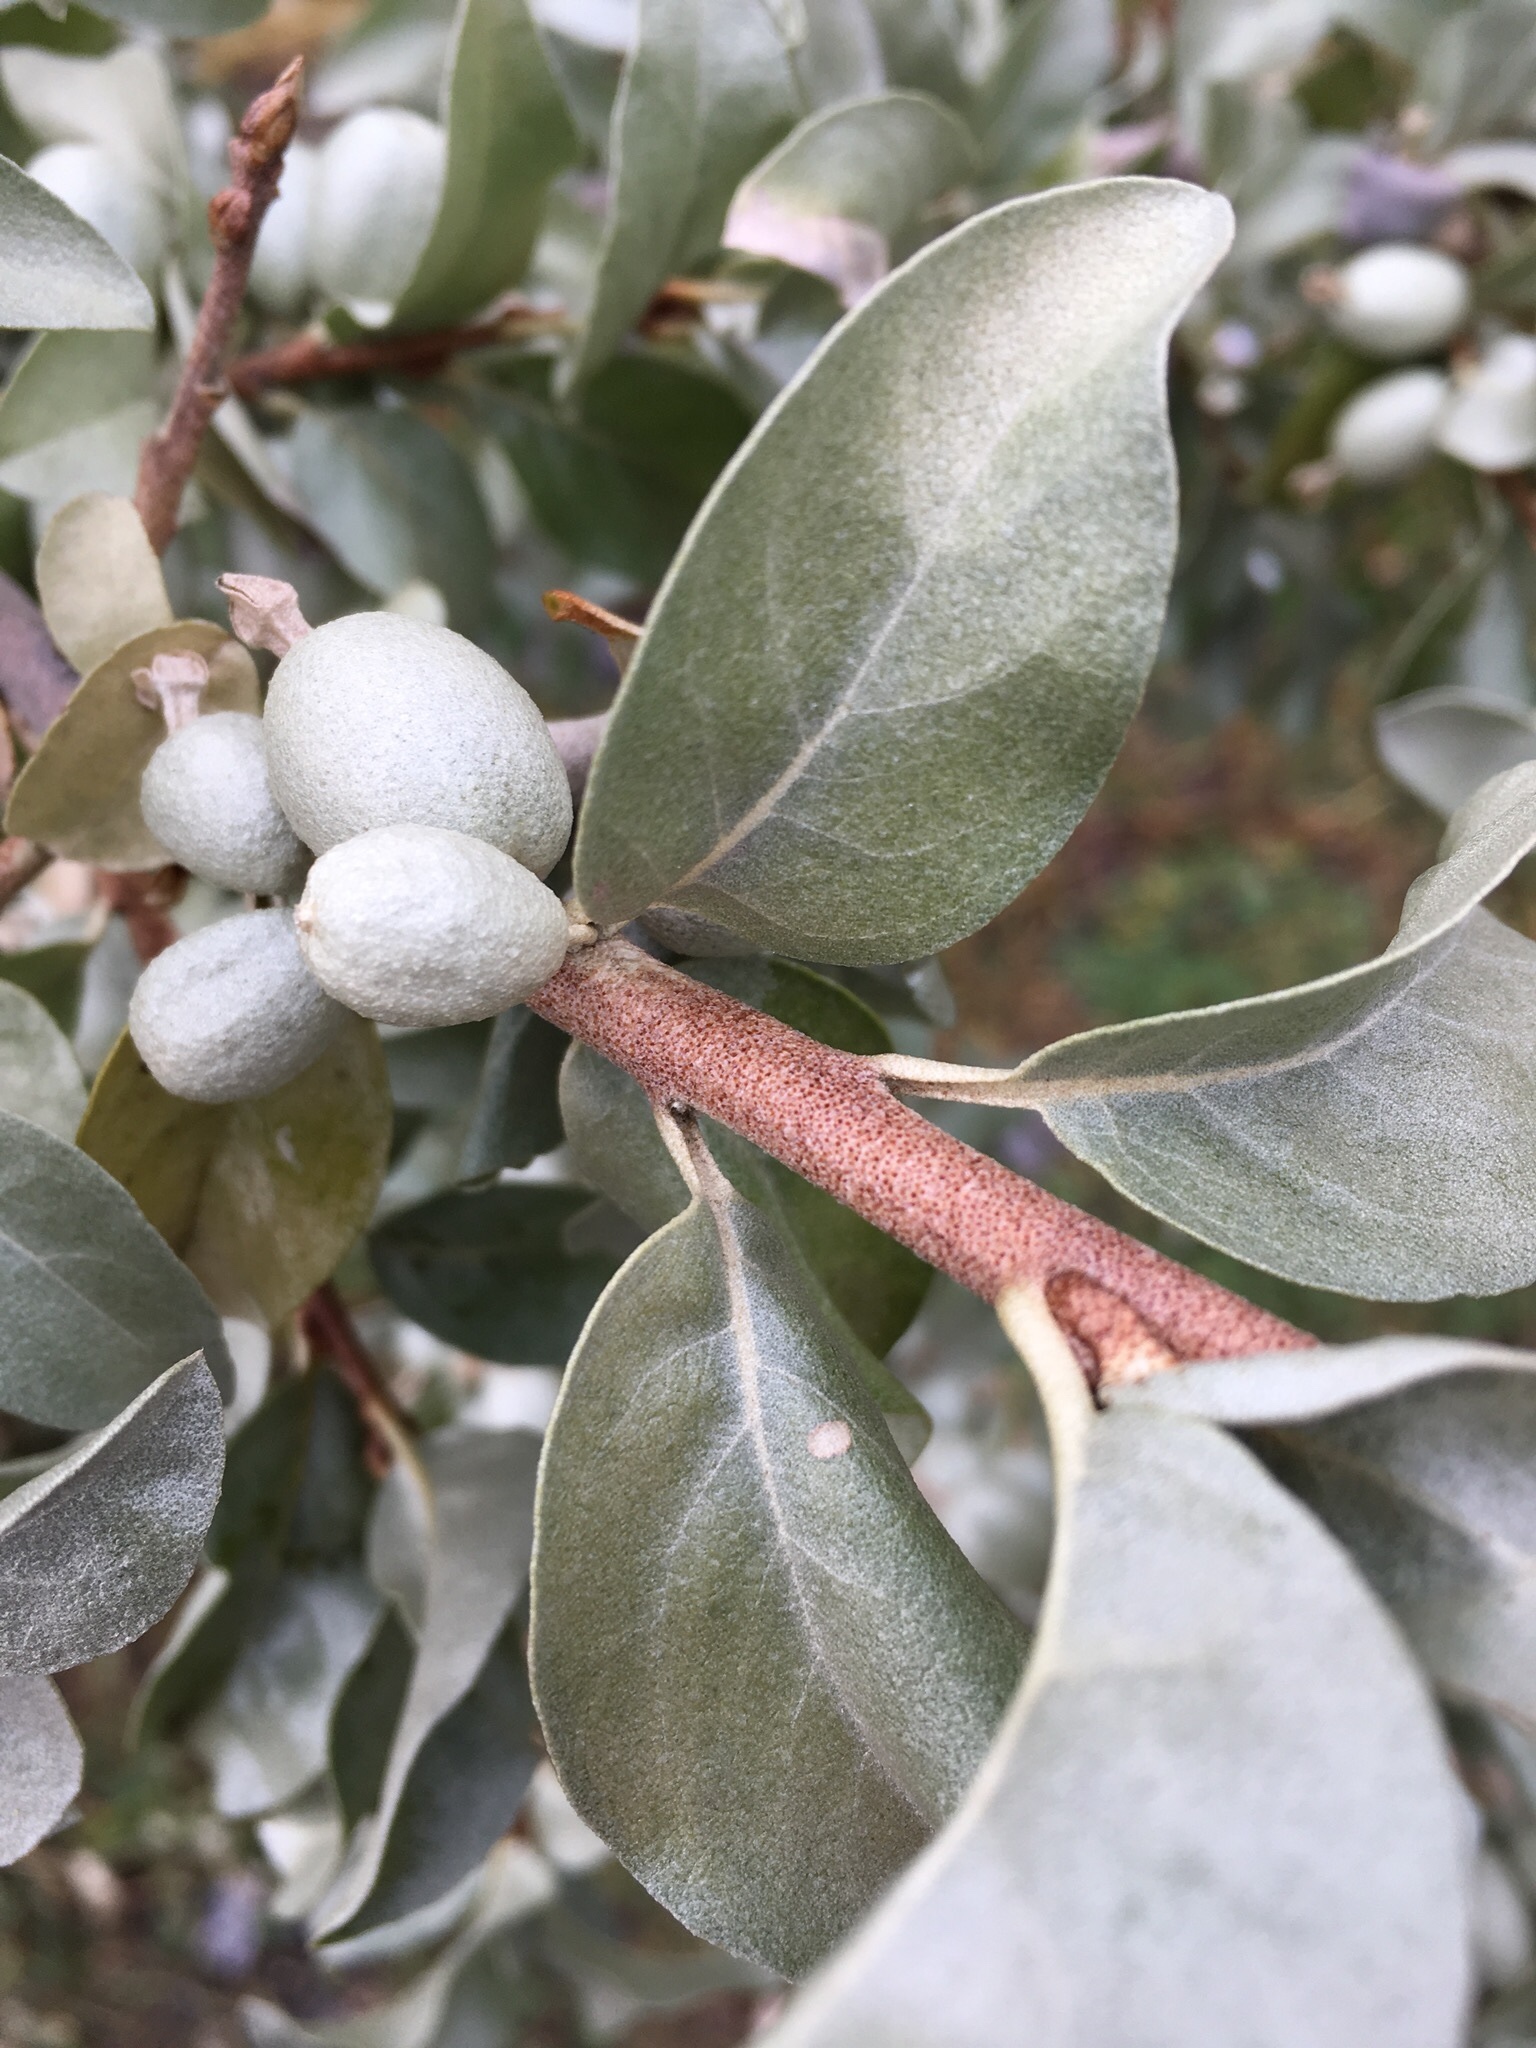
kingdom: Plantae
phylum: Tracheophyta
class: Magnoliopsida
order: Rosales
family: Elaeagnaceae
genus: Elaeagnus
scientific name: Elaeagnus commutata
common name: Silverberry
